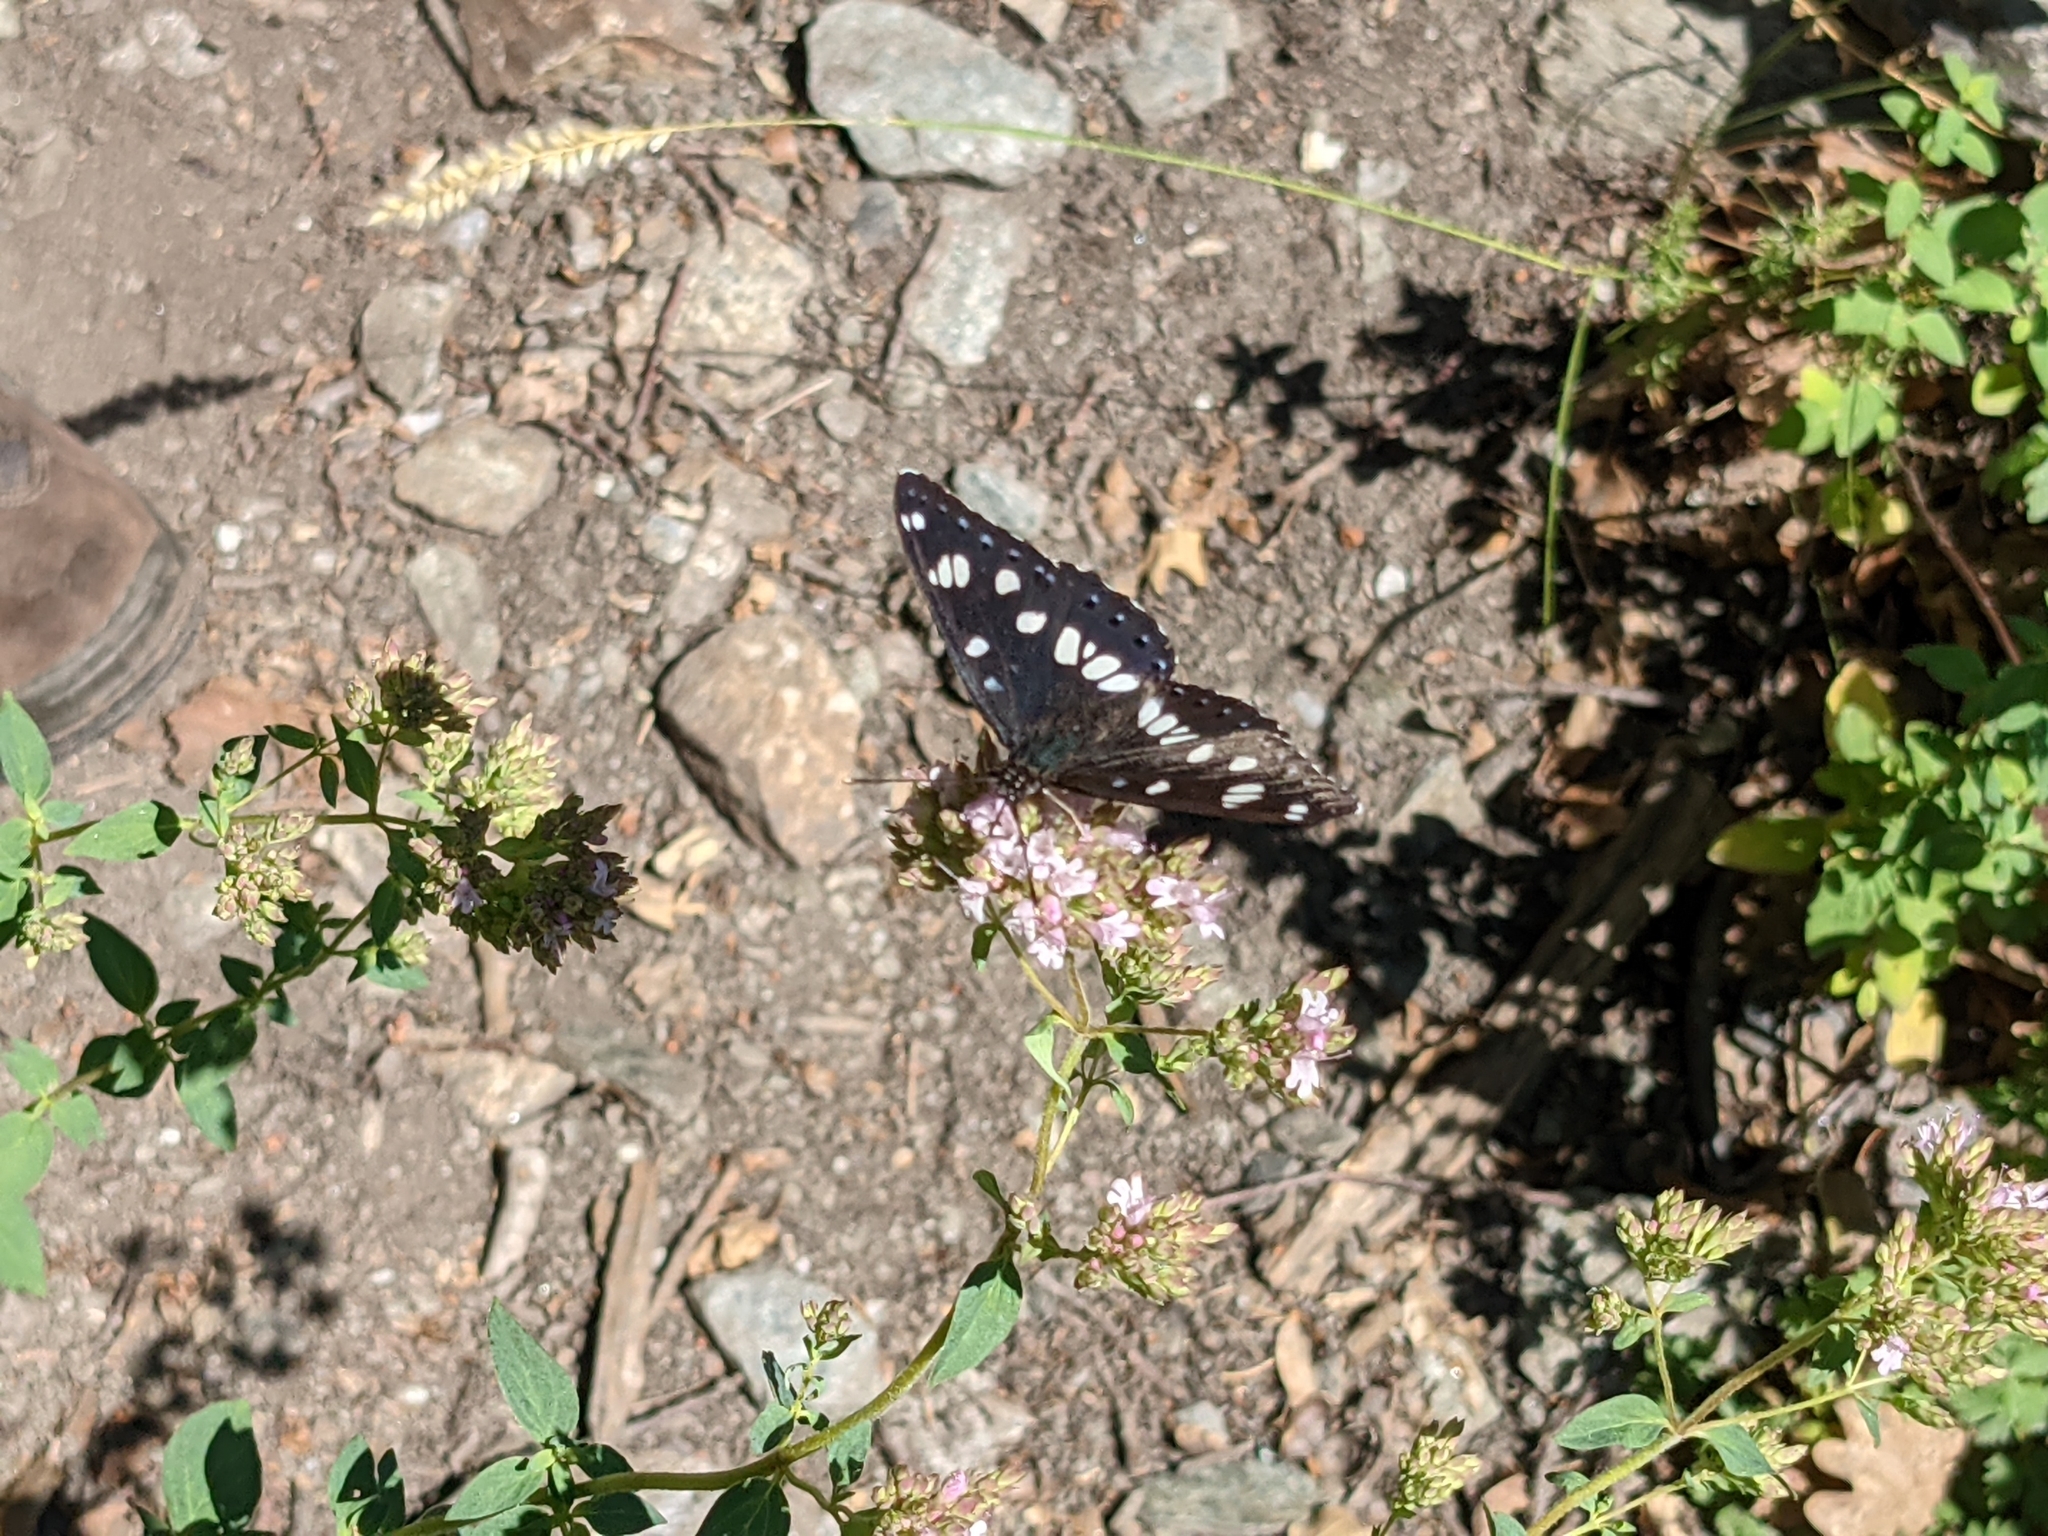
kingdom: Animalia
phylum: Arthropoda
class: Insecta
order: Lepidoptera
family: Nymphalidae
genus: Limenitis
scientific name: Limenitis reducta
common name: Southern white admiral
